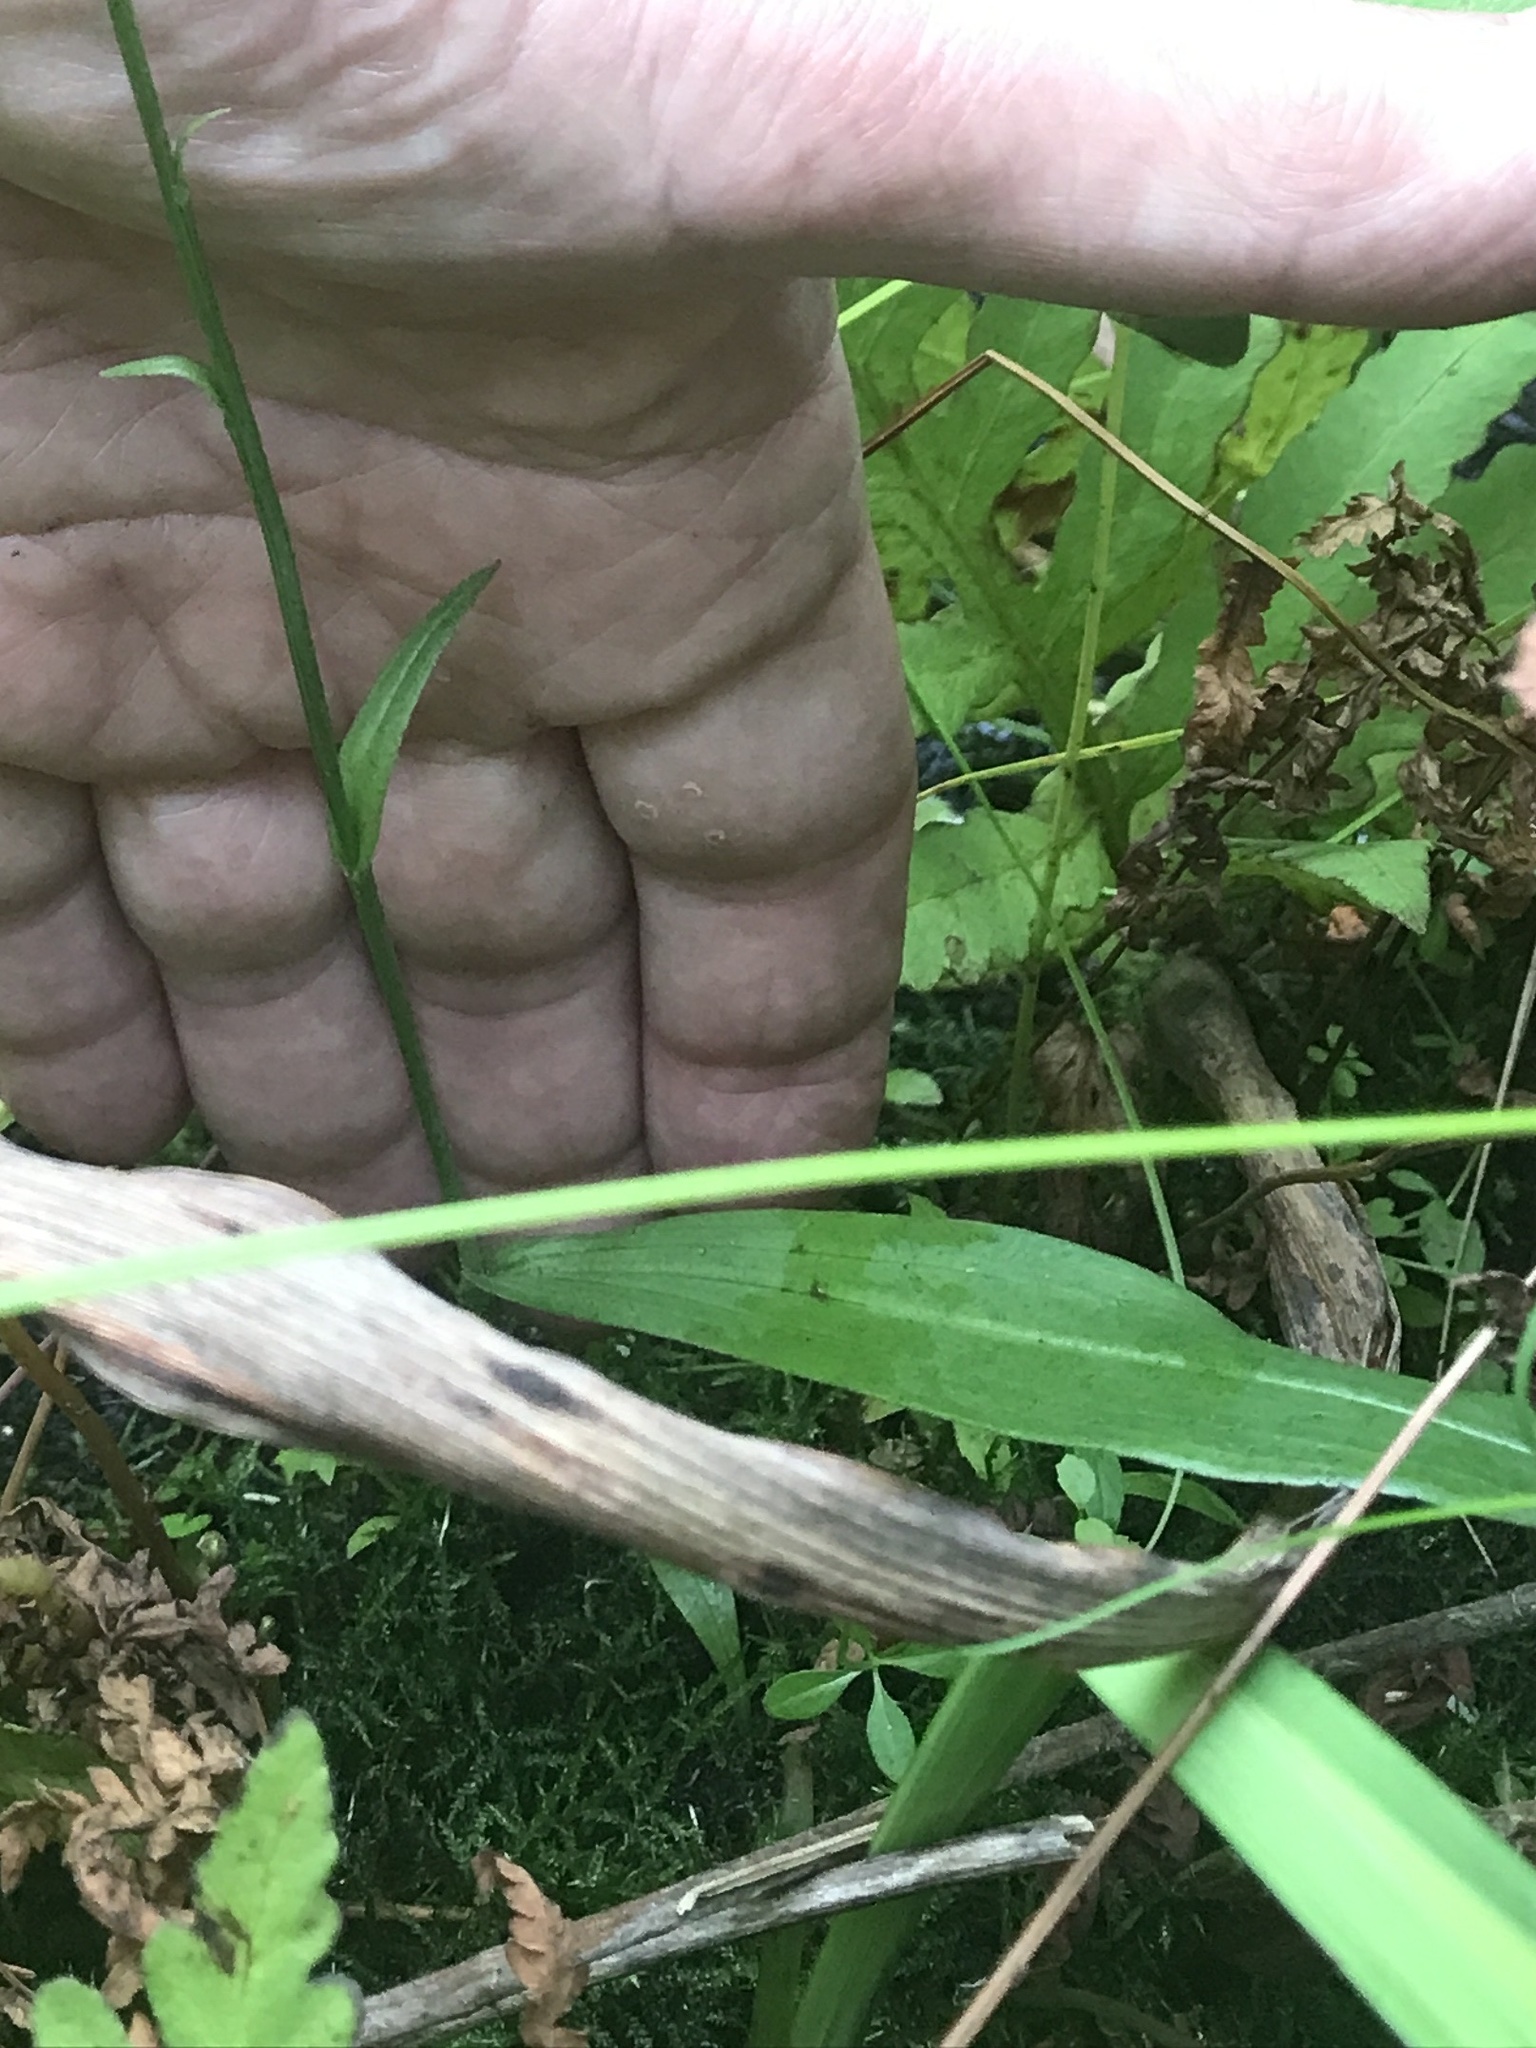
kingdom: Plantae
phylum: Tracheophyta
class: Liliopsida
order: Asparagales
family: Orchidaceae
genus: Platanthera
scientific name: Platanthera clavellata
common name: Club-spur orchid
